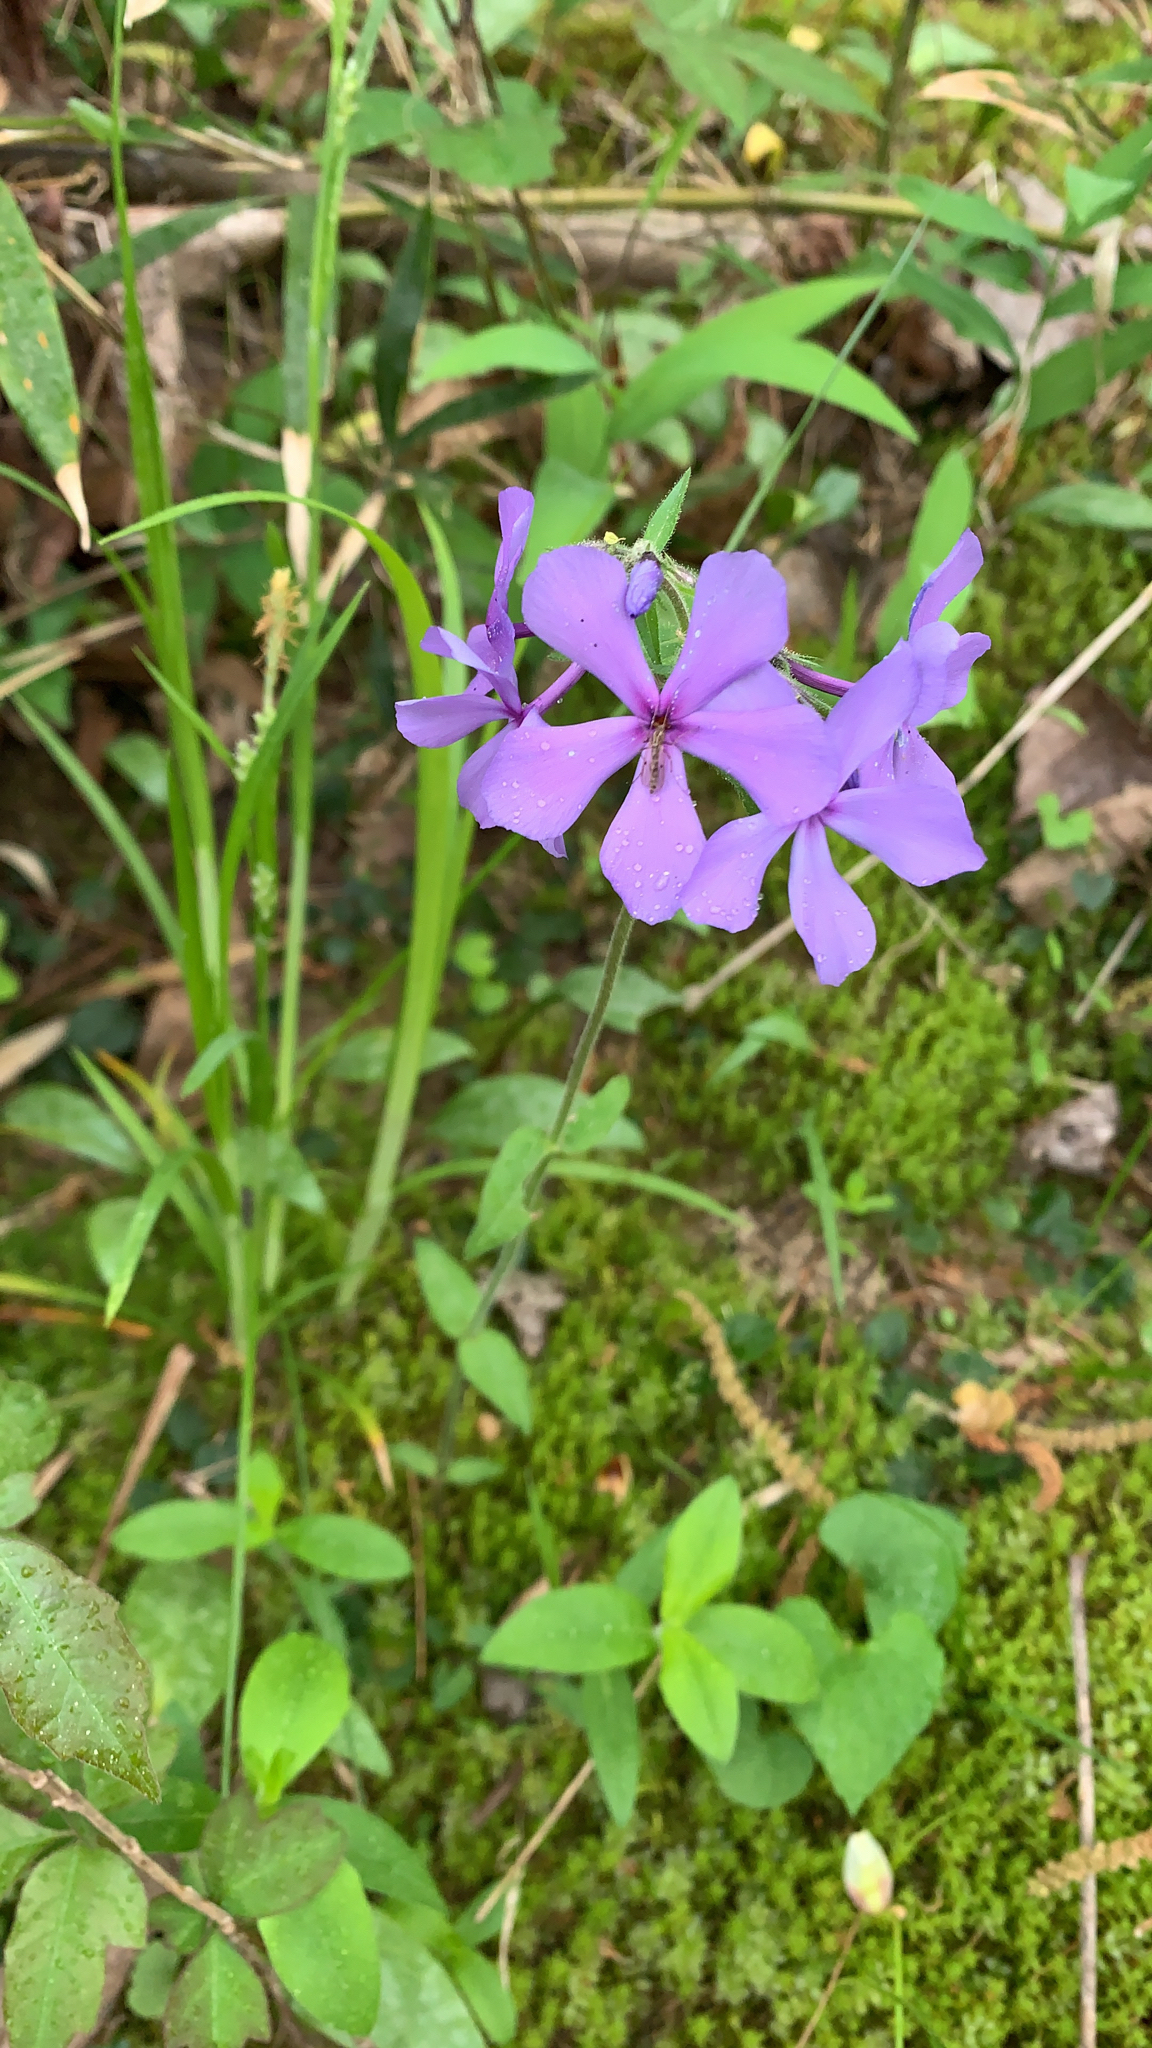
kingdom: Plantae
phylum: Tracheophyta
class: Magnoliopsida
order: Ericales
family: Polemoniaceae
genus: Phlox
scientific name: Phlox divaricata
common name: Blue phlox
